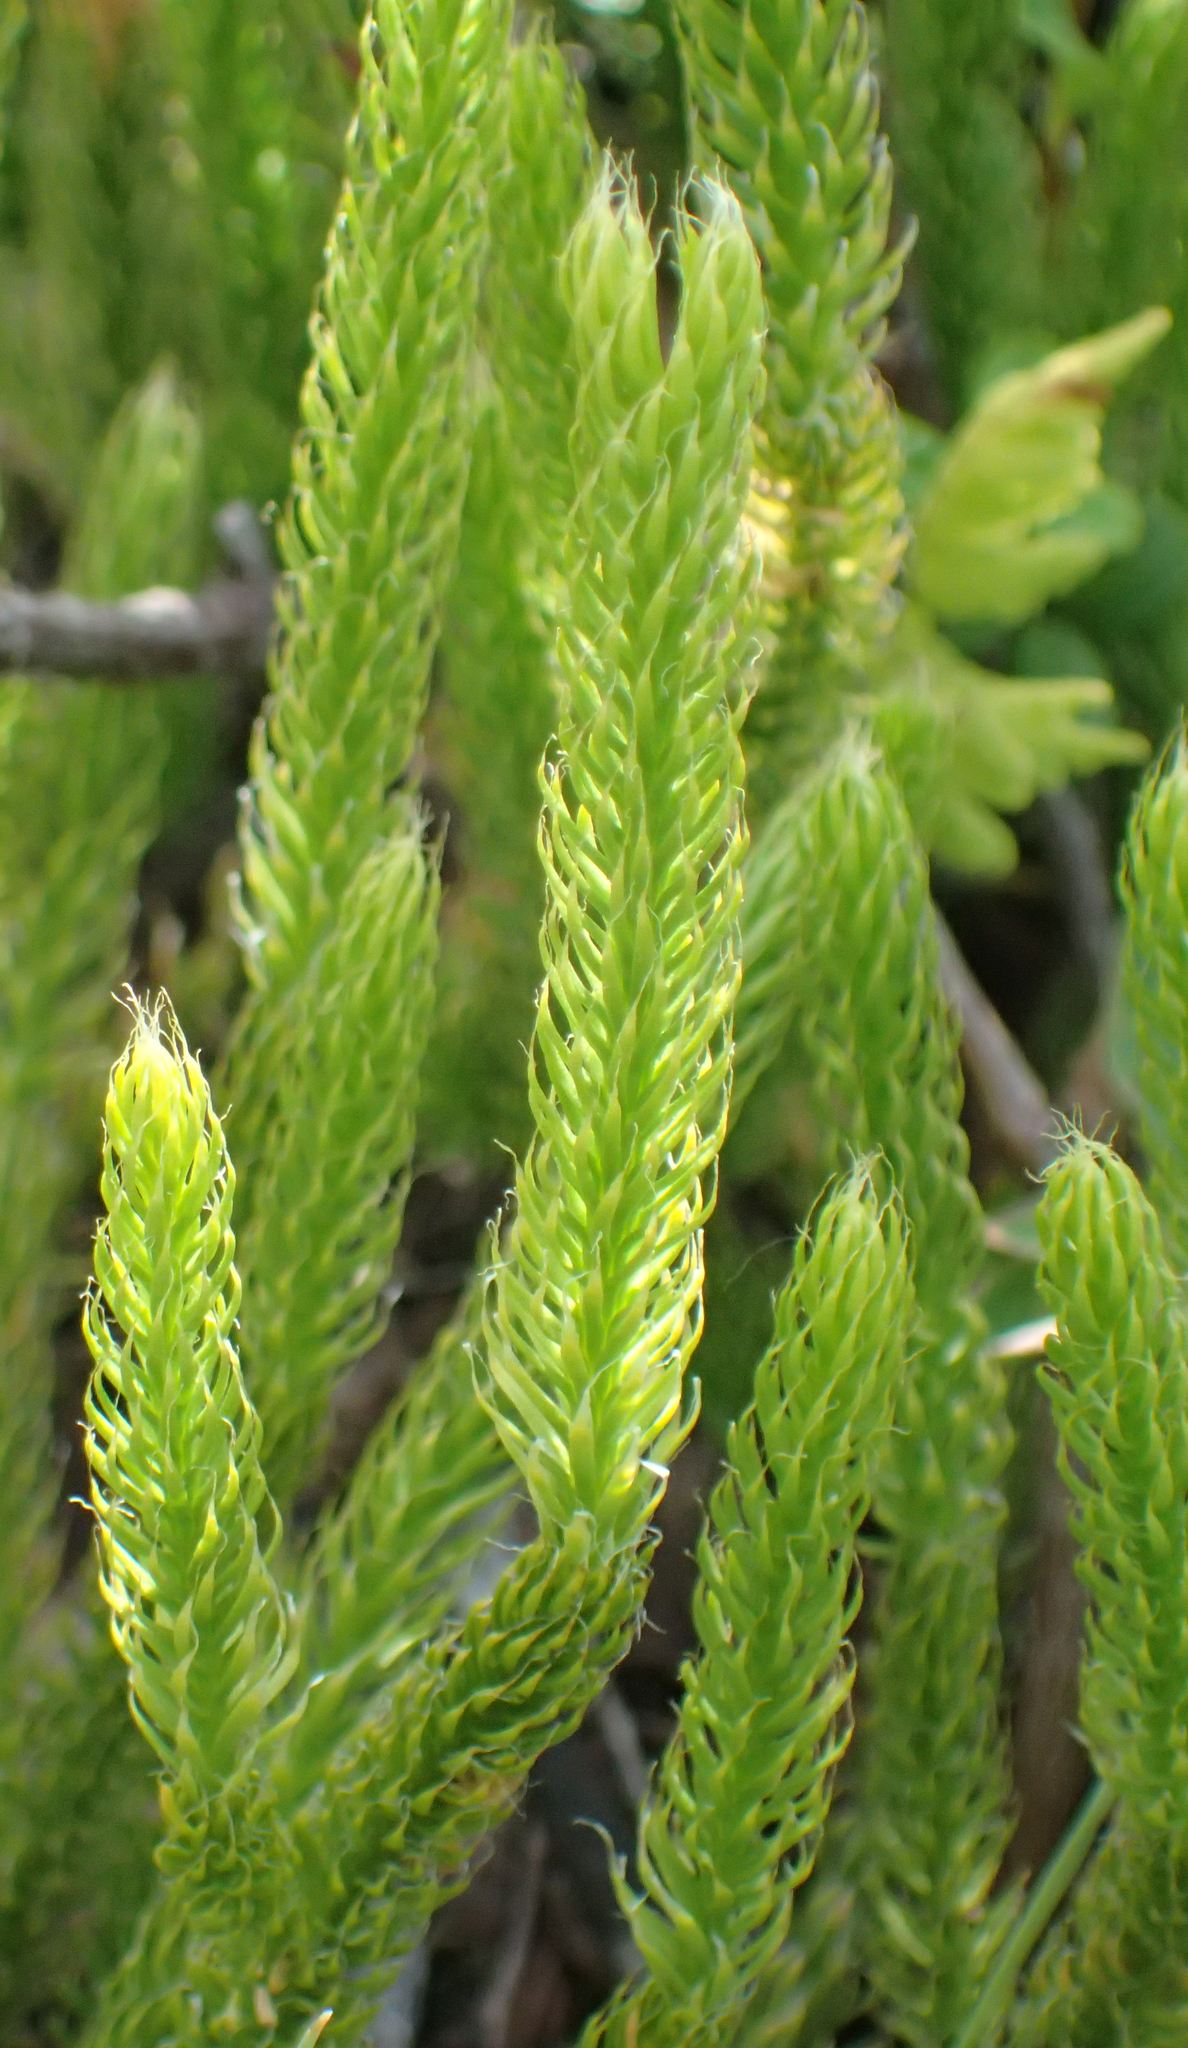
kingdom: Plantae
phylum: Tracheophyta
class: Lycopodiopsida
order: Lycopodiales
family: Lycopodiaceae
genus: Lycopodium
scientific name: Lycopodium lagopus
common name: One-cone clubmoss
